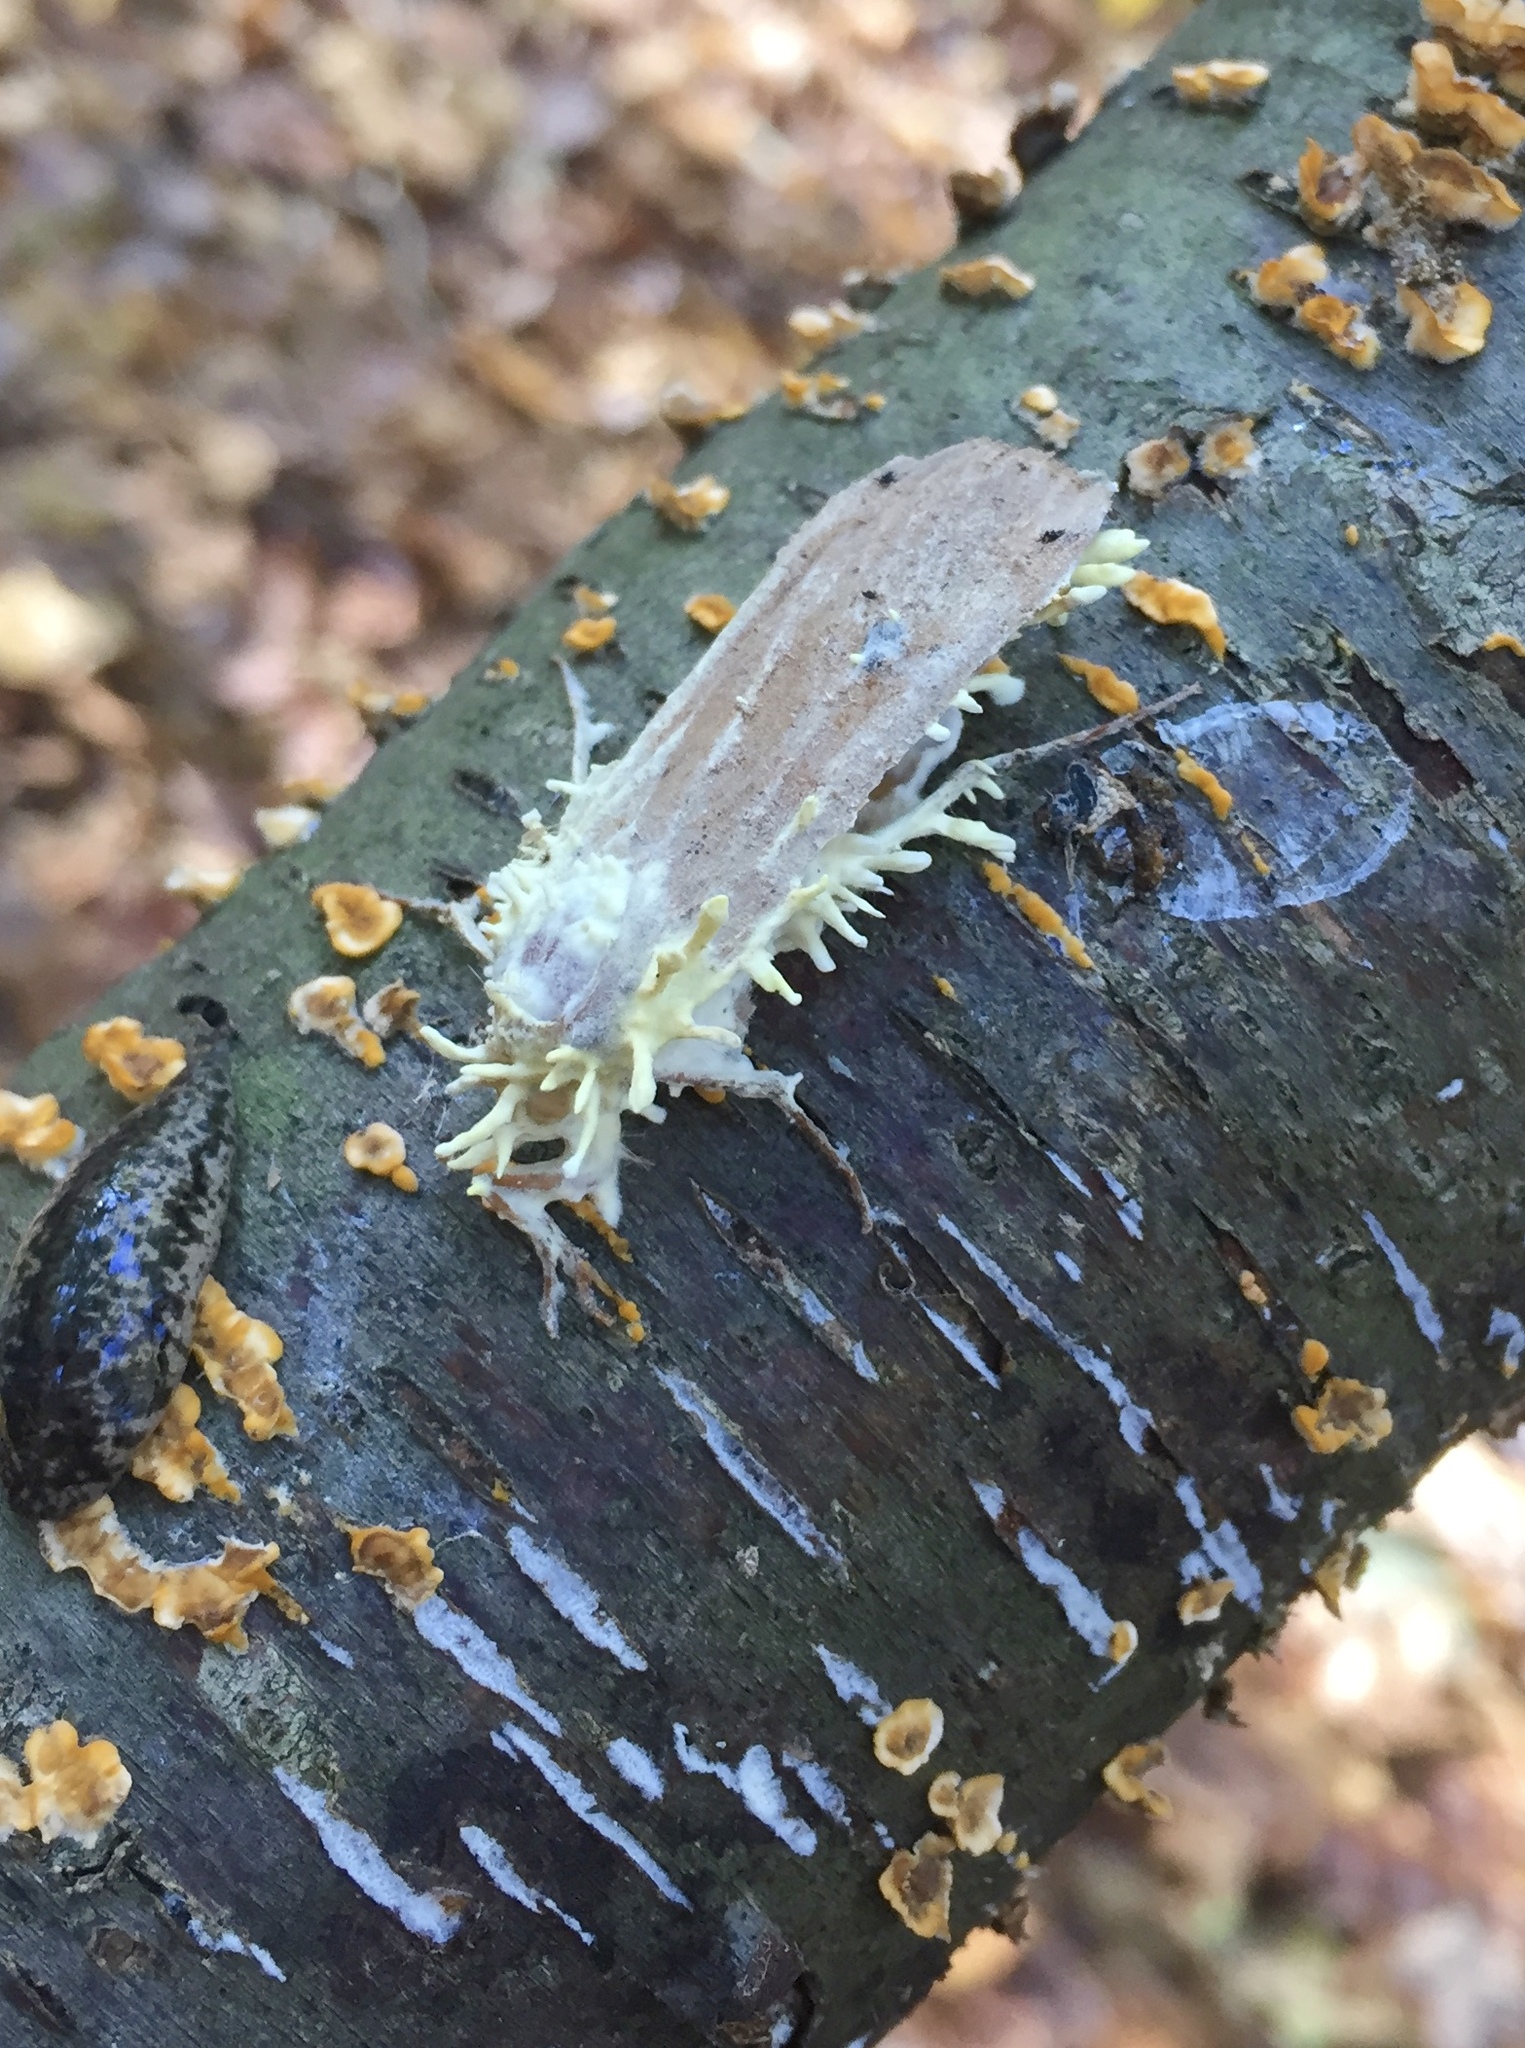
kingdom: Fungi
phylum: Ascomycota
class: Sordariomycetes
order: Hypocreales
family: Cordycipitaceae
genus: Akanthomyces
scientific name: Akanthomyces aculeatus
